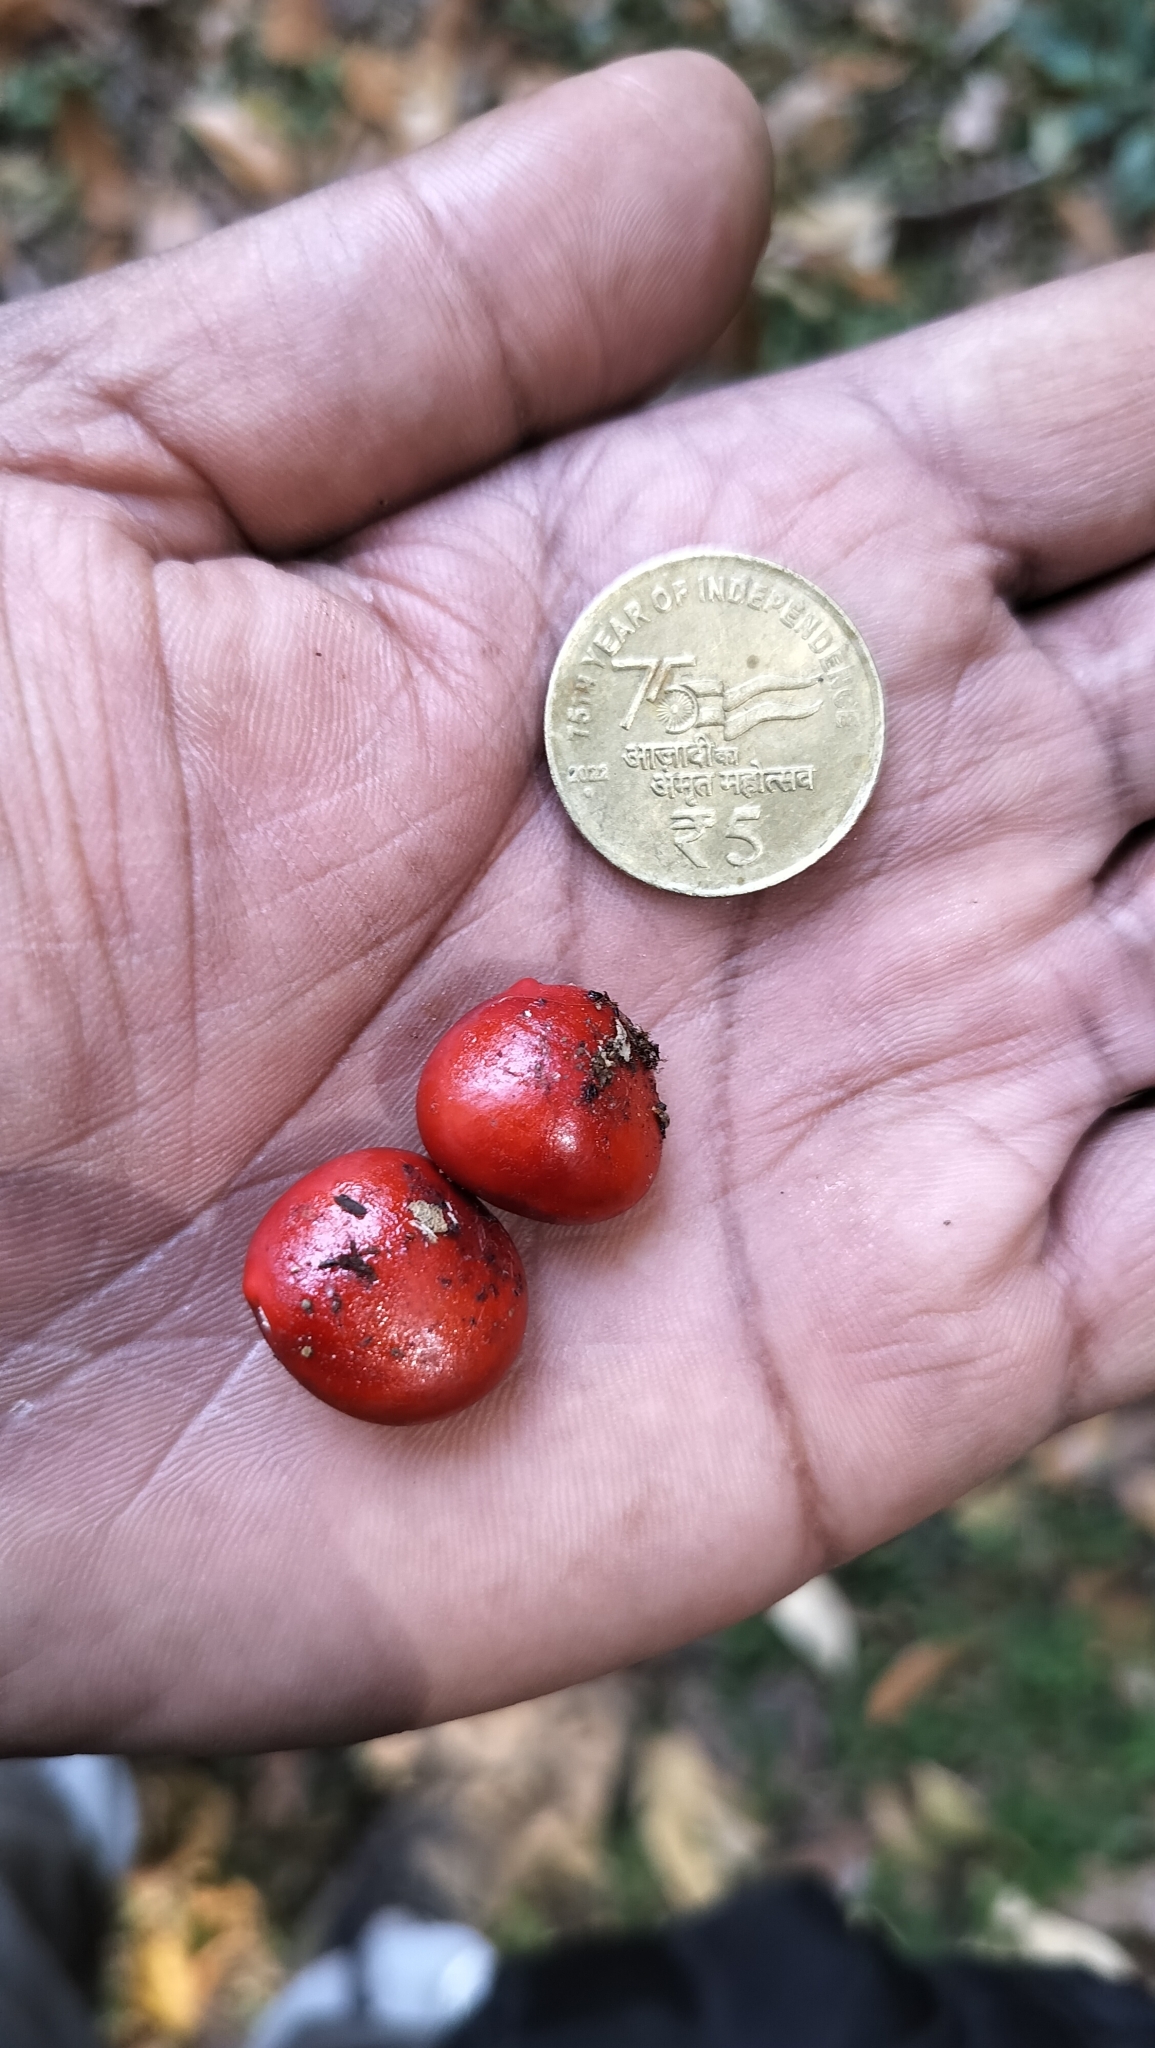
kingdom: Plantae
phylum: Tracheophyta
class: Magnoliopsida
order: Fabales
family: Fabaceae
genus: Ormosia
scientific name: Ormosia travancorica
